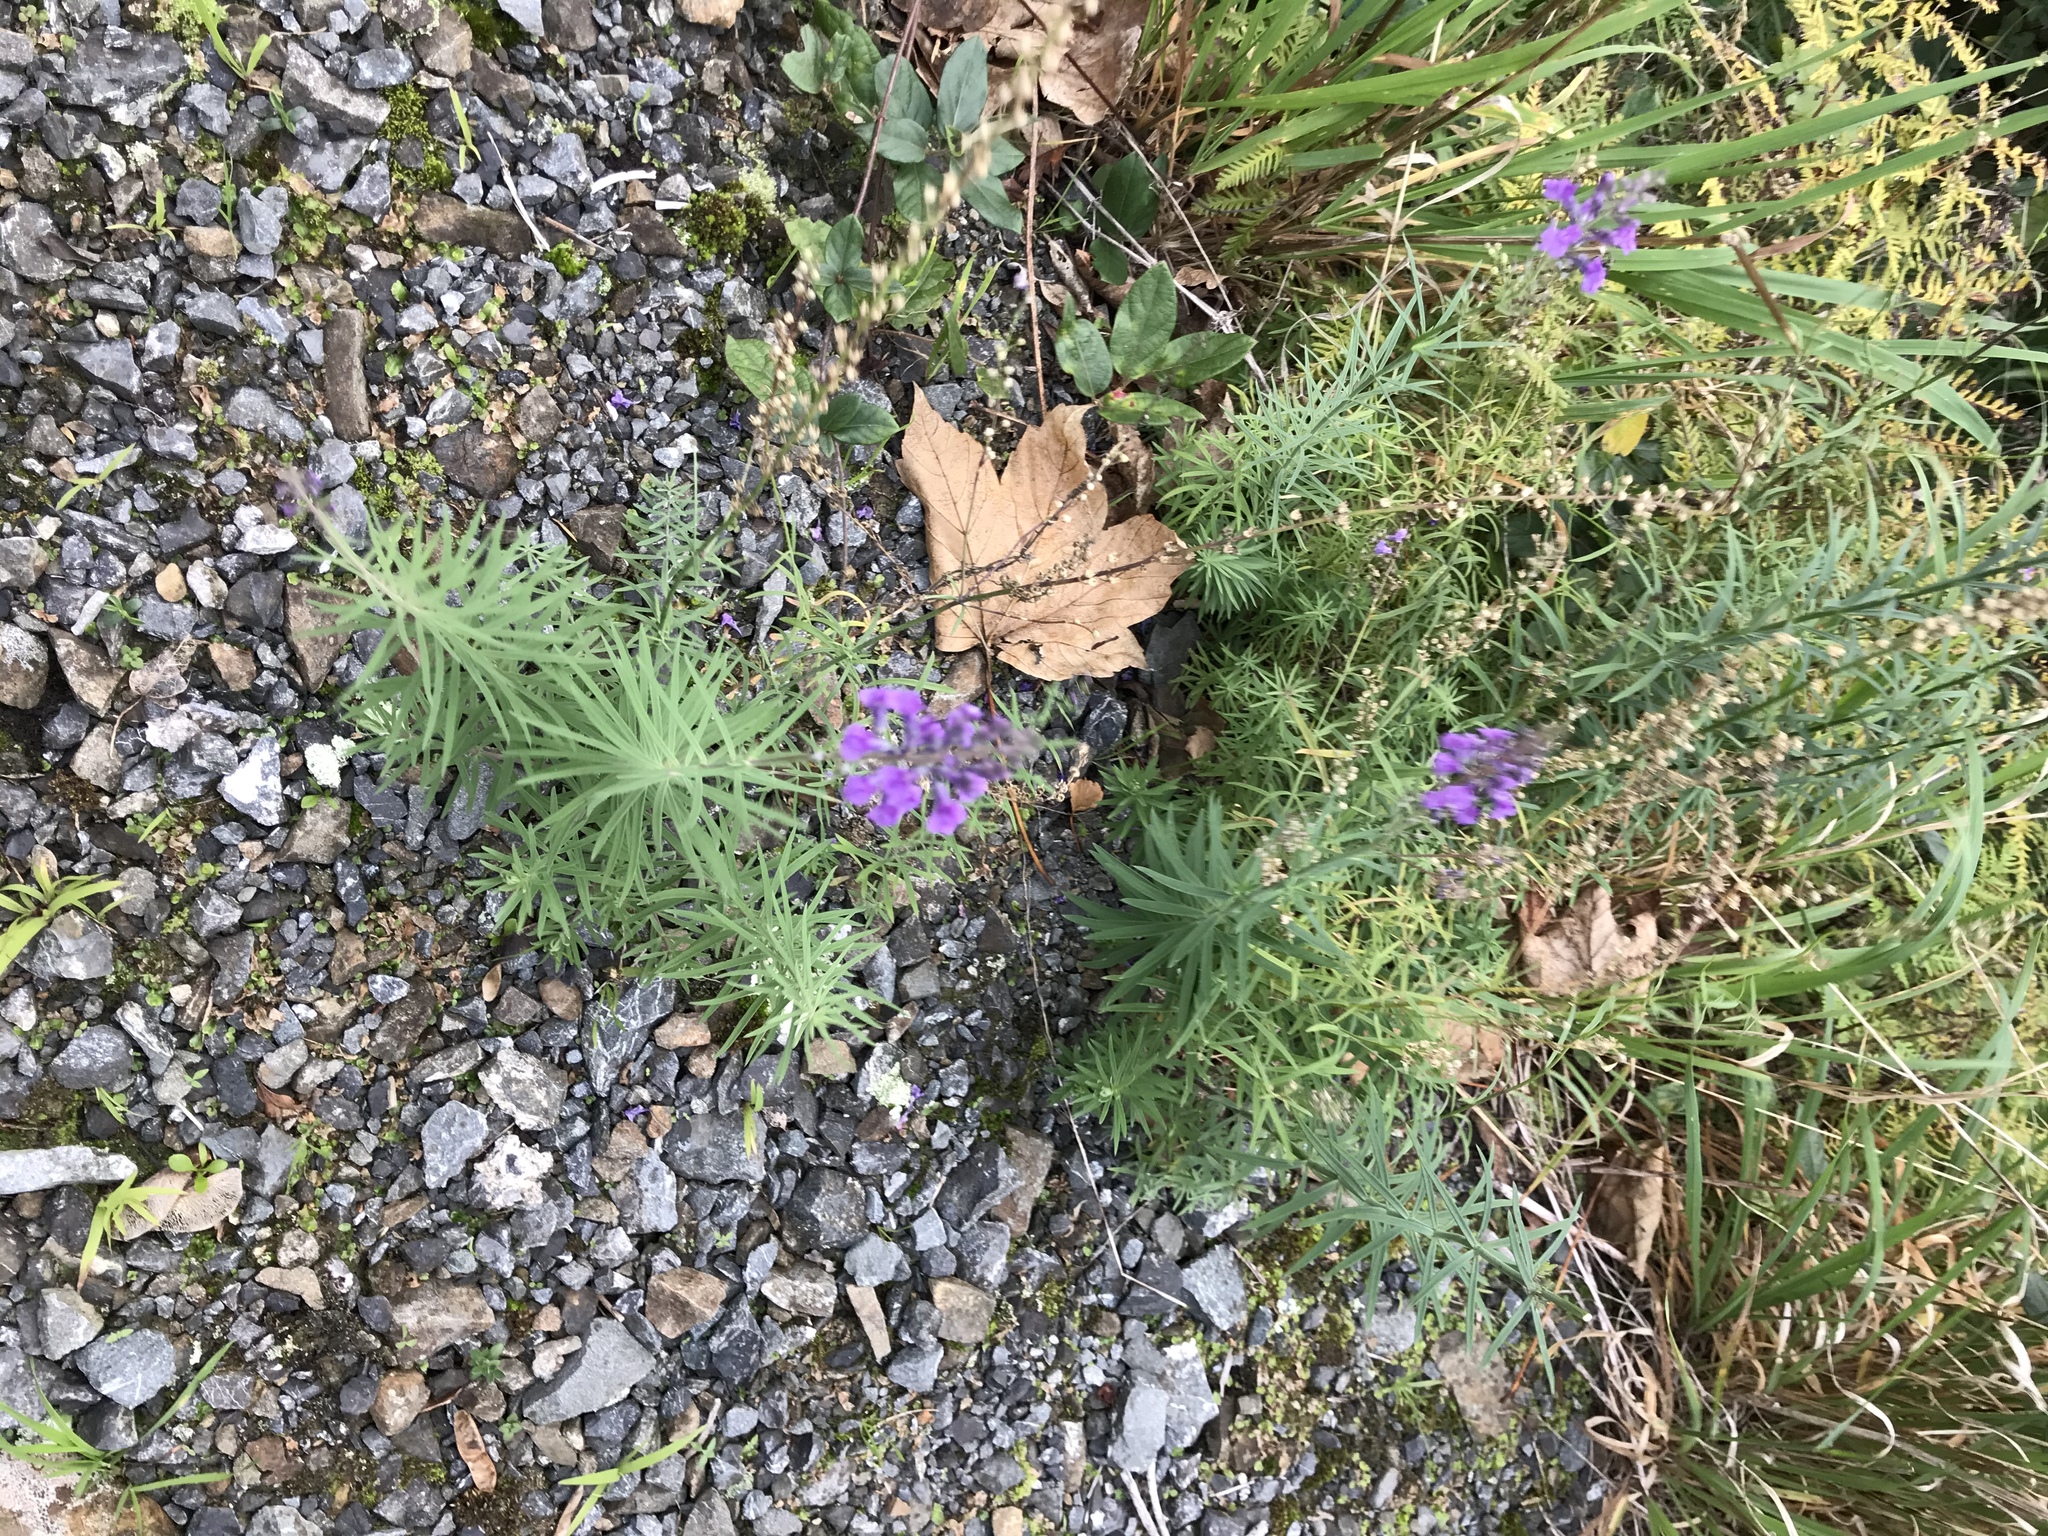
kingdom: Plantae
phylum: Tracheophyta
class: Magnoliopsida
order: Lamiales
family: Plantaginaceae
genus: Linaria
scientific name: Linaria purpurea
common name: Purple toadflax
